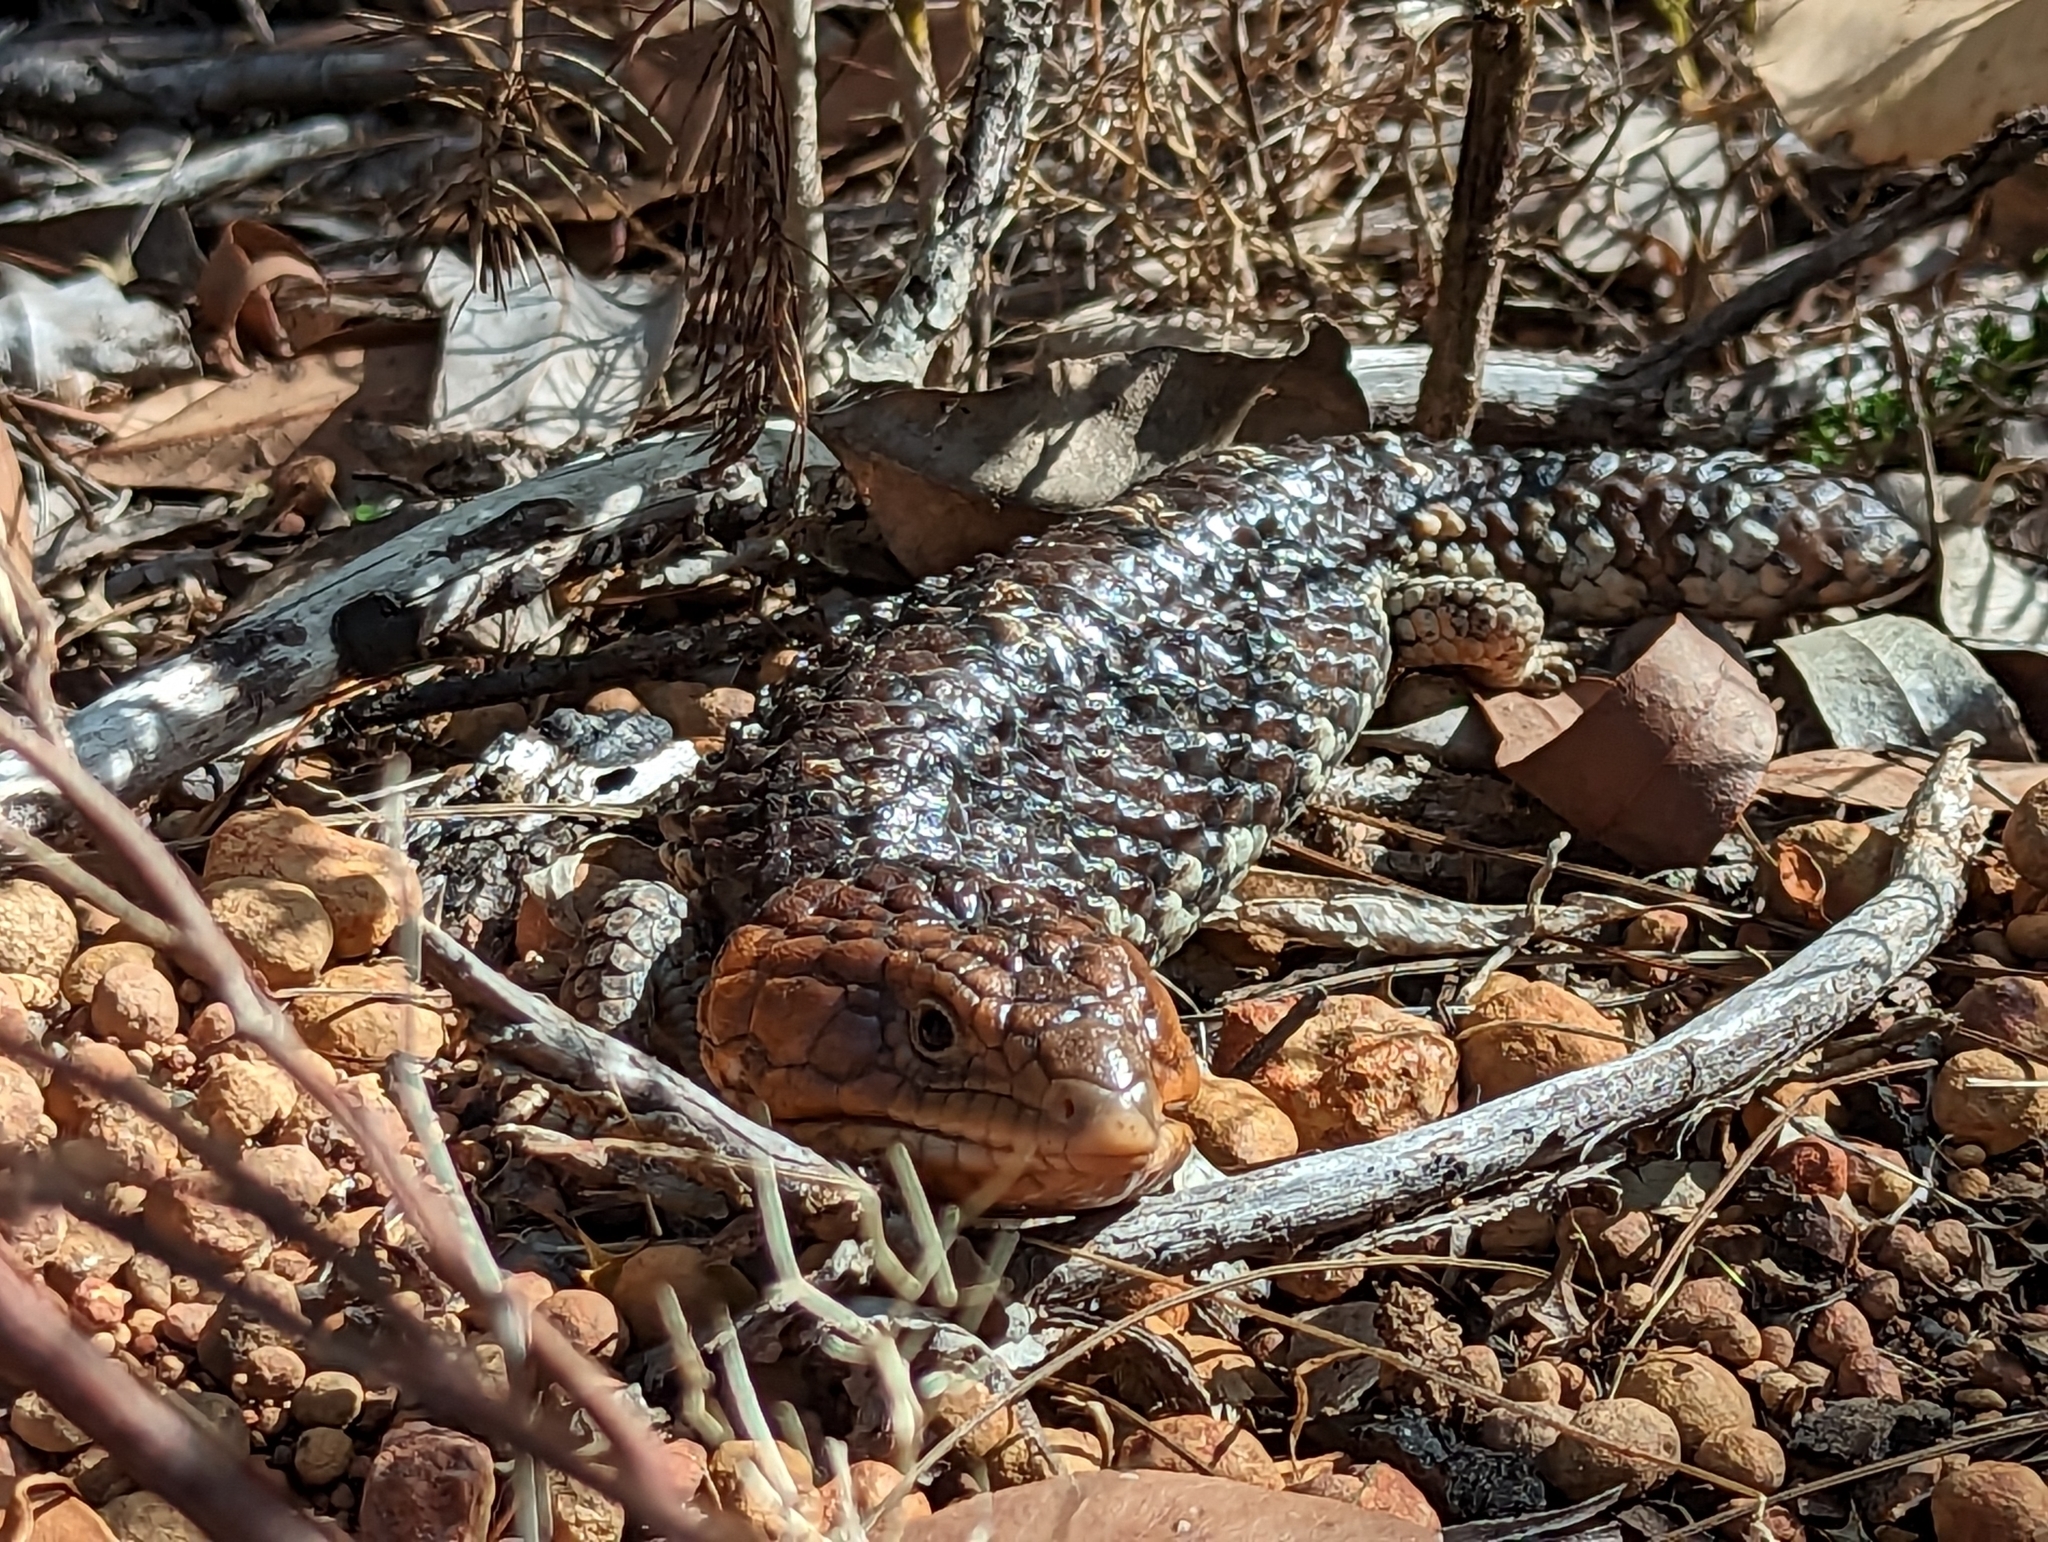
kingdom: Animalia
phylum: Chordata
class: Squamata
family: Scincidae
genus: Tiliqua
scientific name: Tiliqua rugosa
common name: Pinecone lizard
